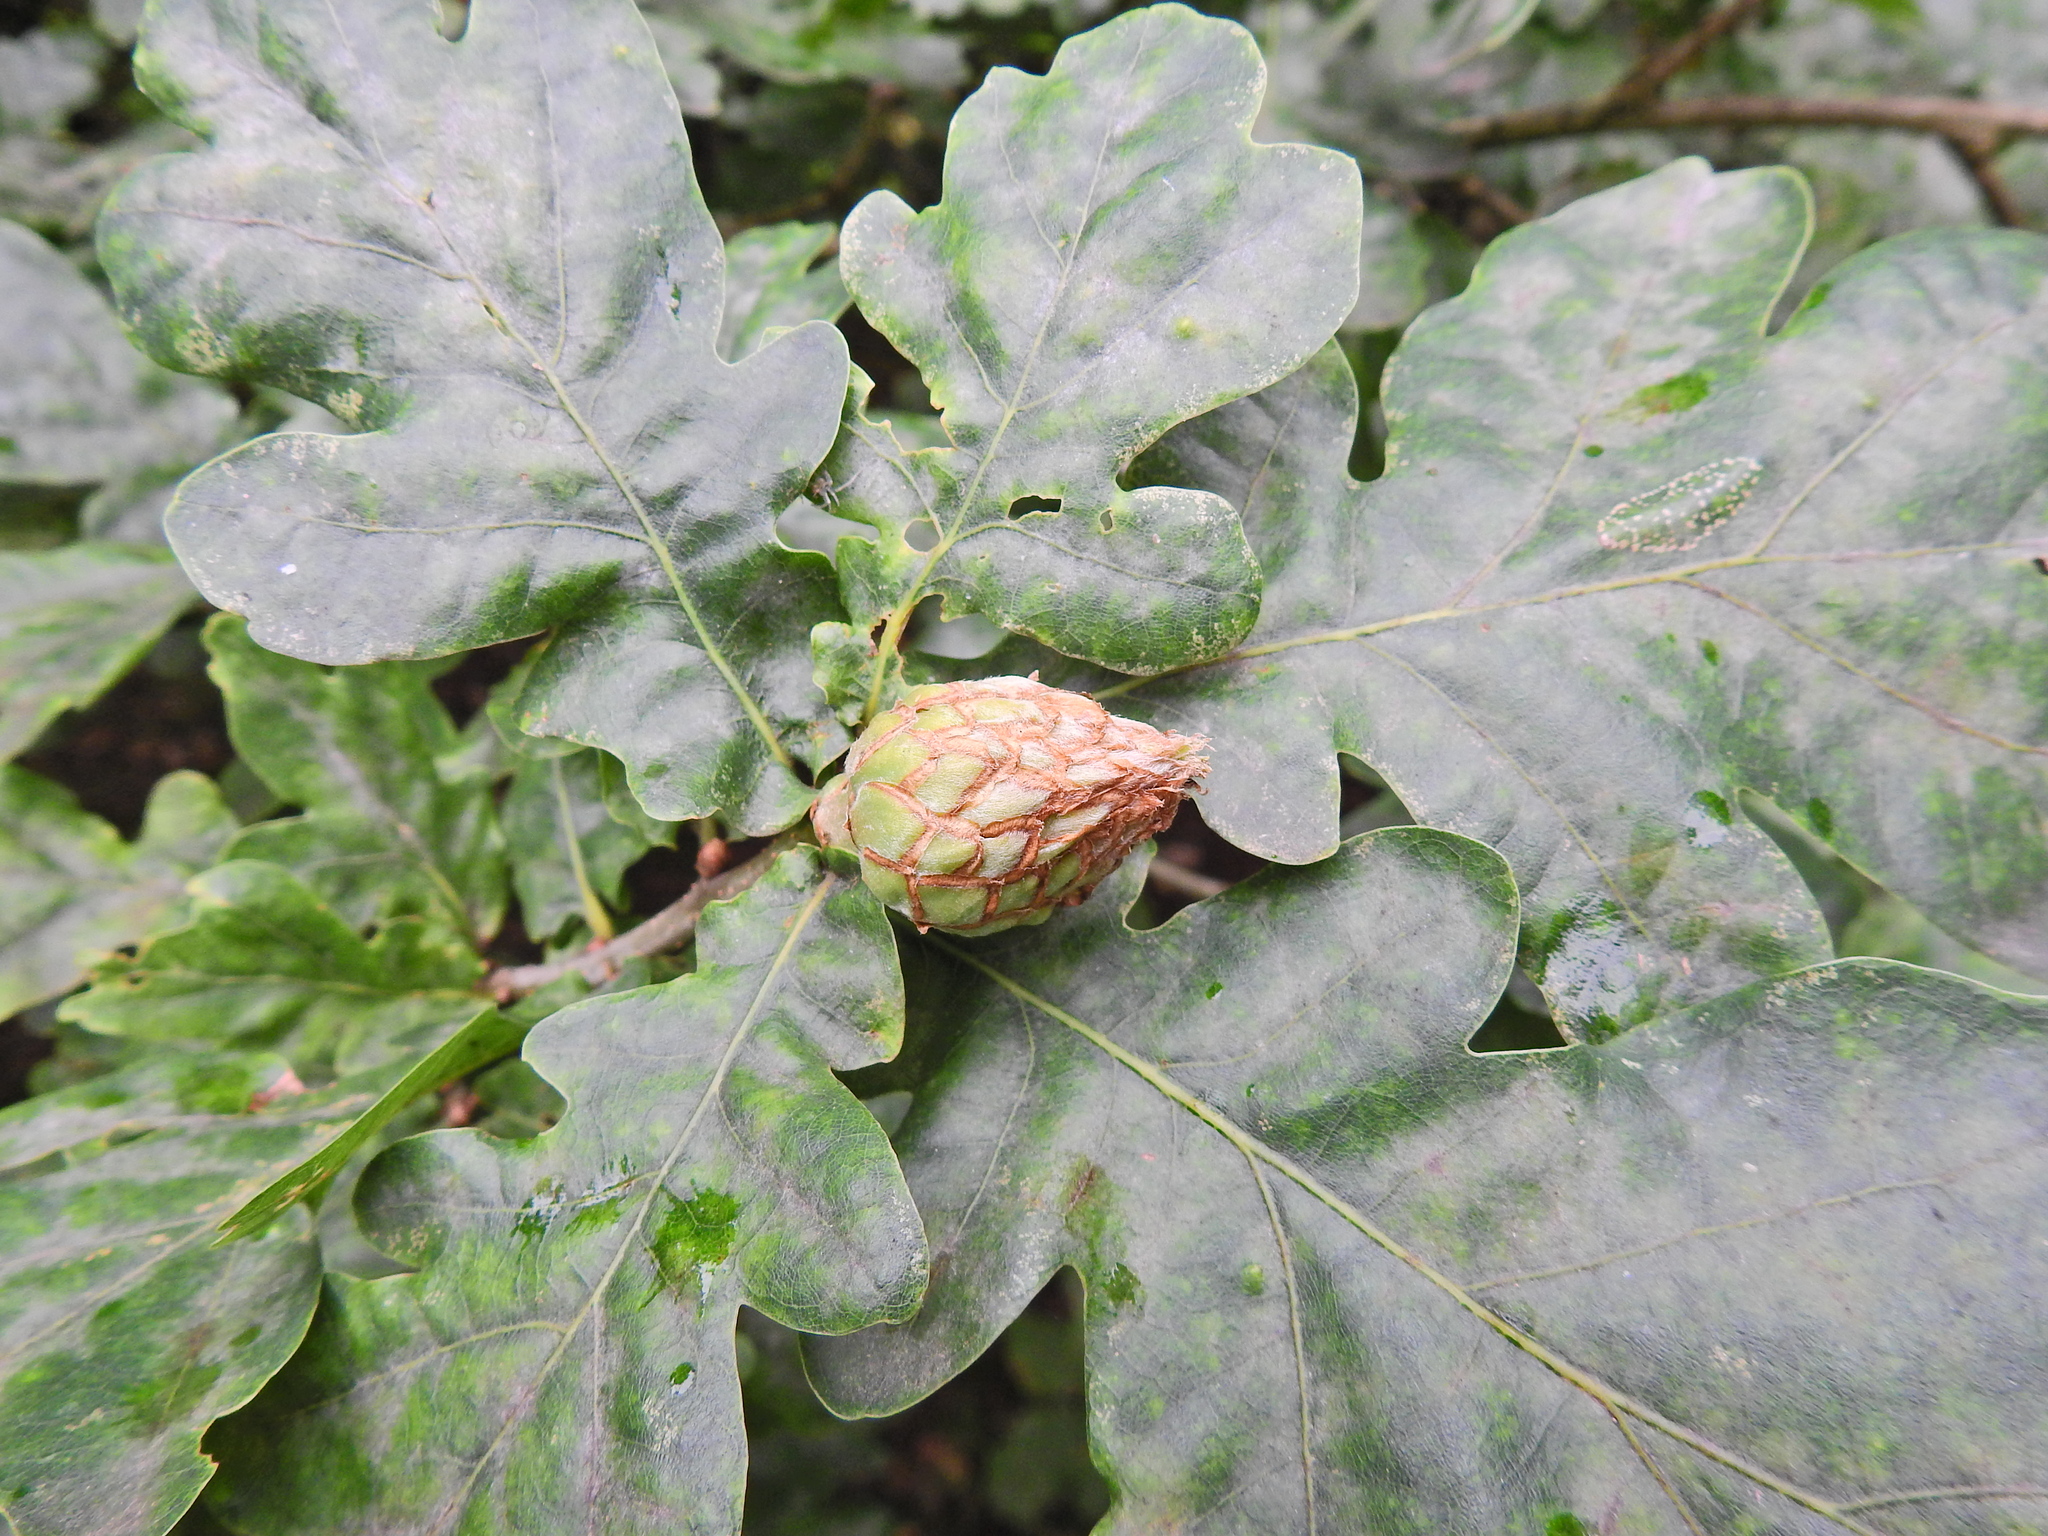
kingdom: Animalia
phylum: Arthropoda
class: Insecta
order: Hymenoptera
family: Cynipidae
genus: Andricus
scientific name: Andricus foecundatrix
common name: Artichoke gall
